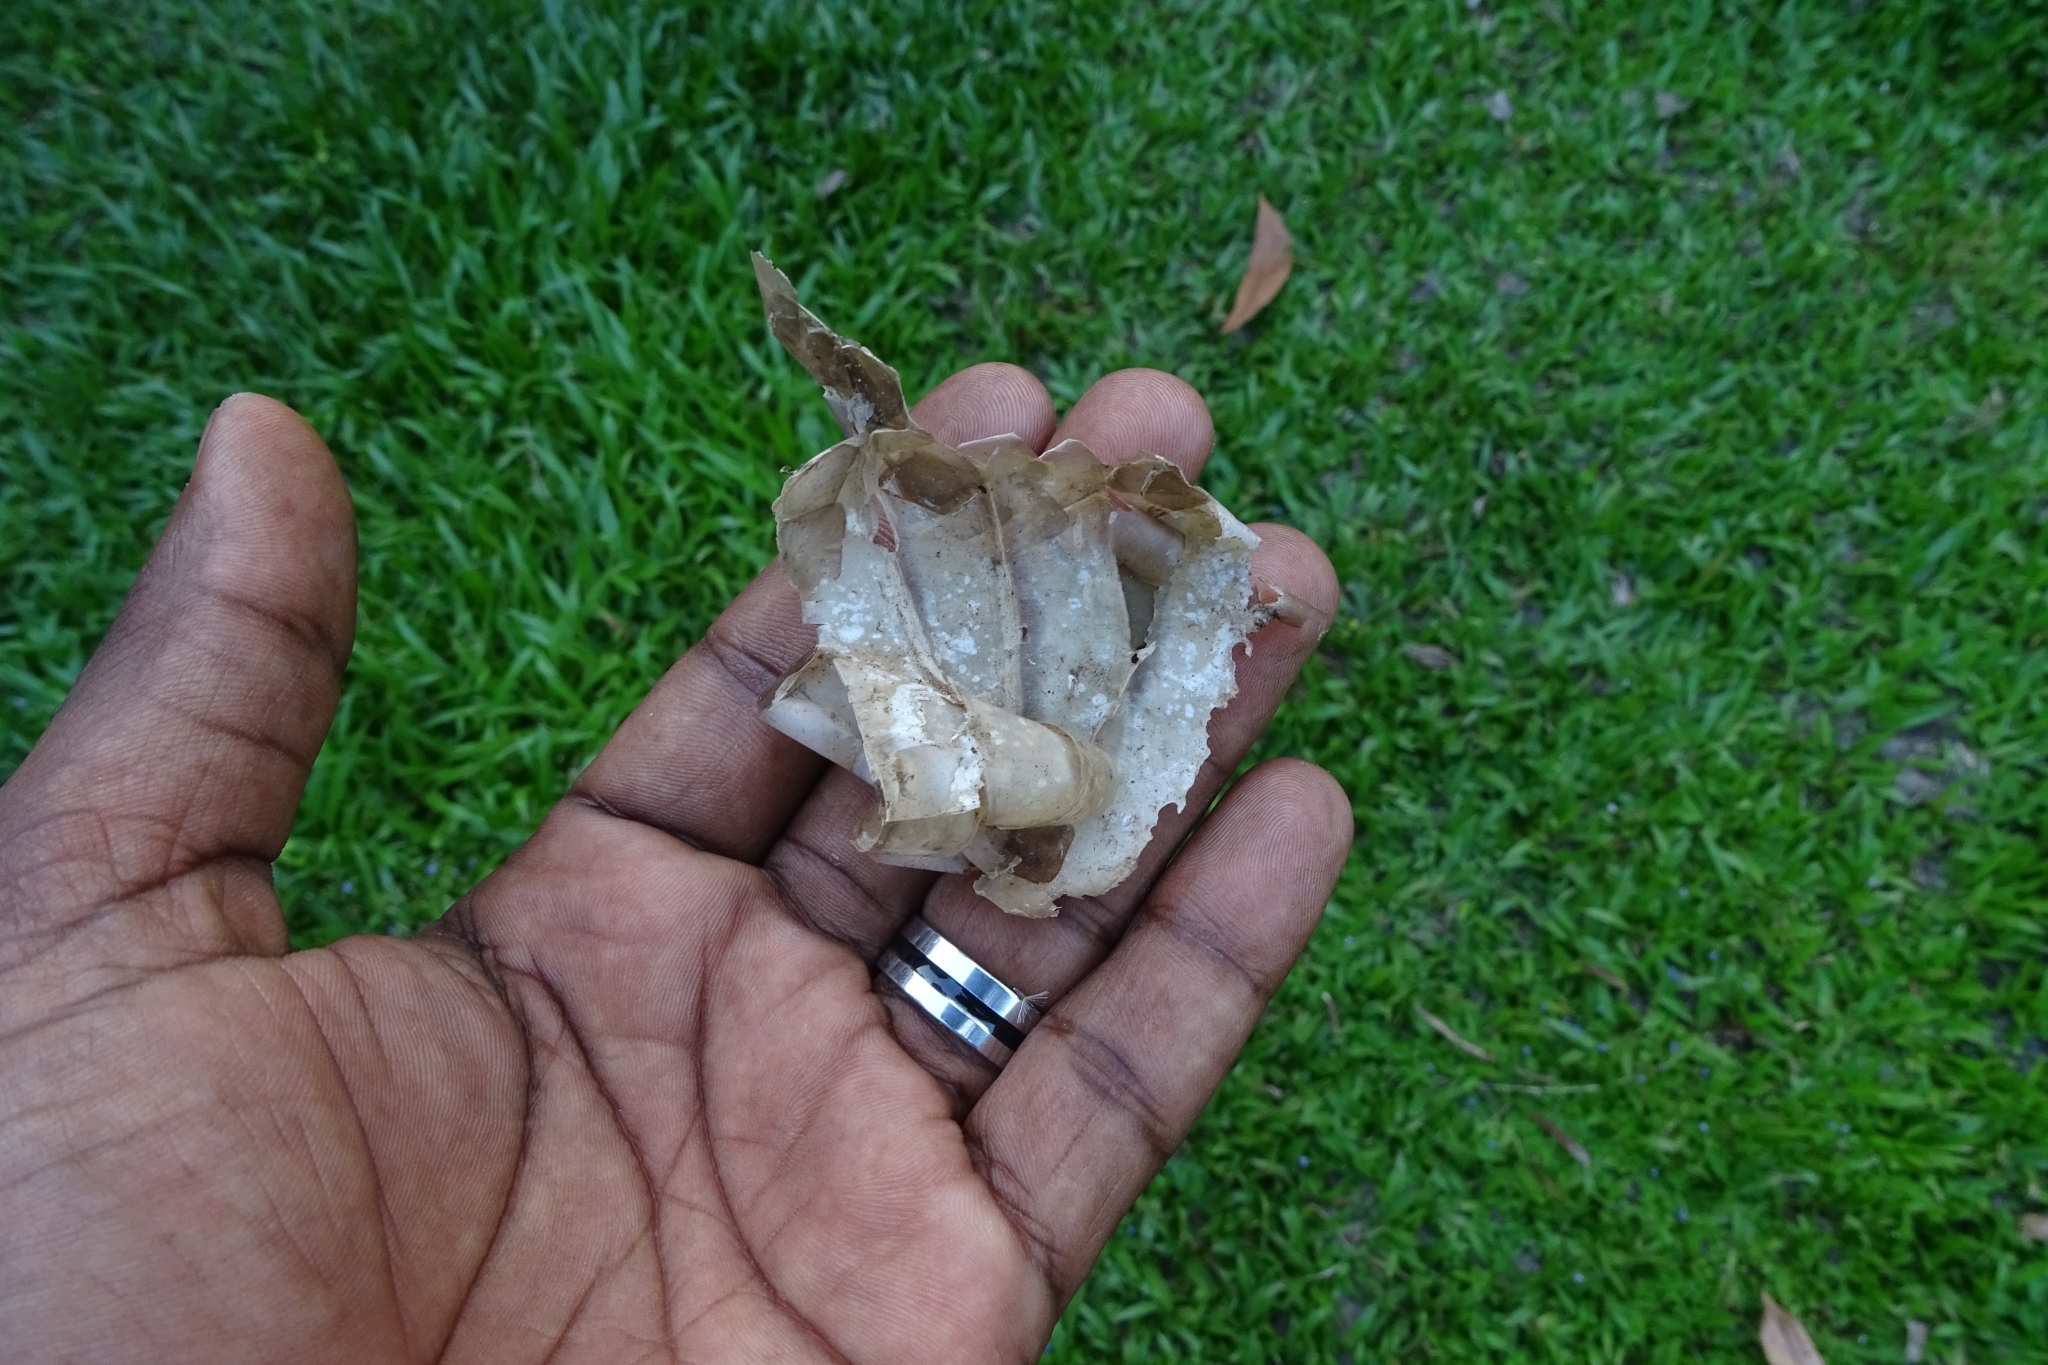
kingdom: Animalia
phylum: Chordata
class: Squamata
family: Colubridae
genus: Ptyas
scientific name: Ptyas mucosa
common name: Oriental ratsnake
